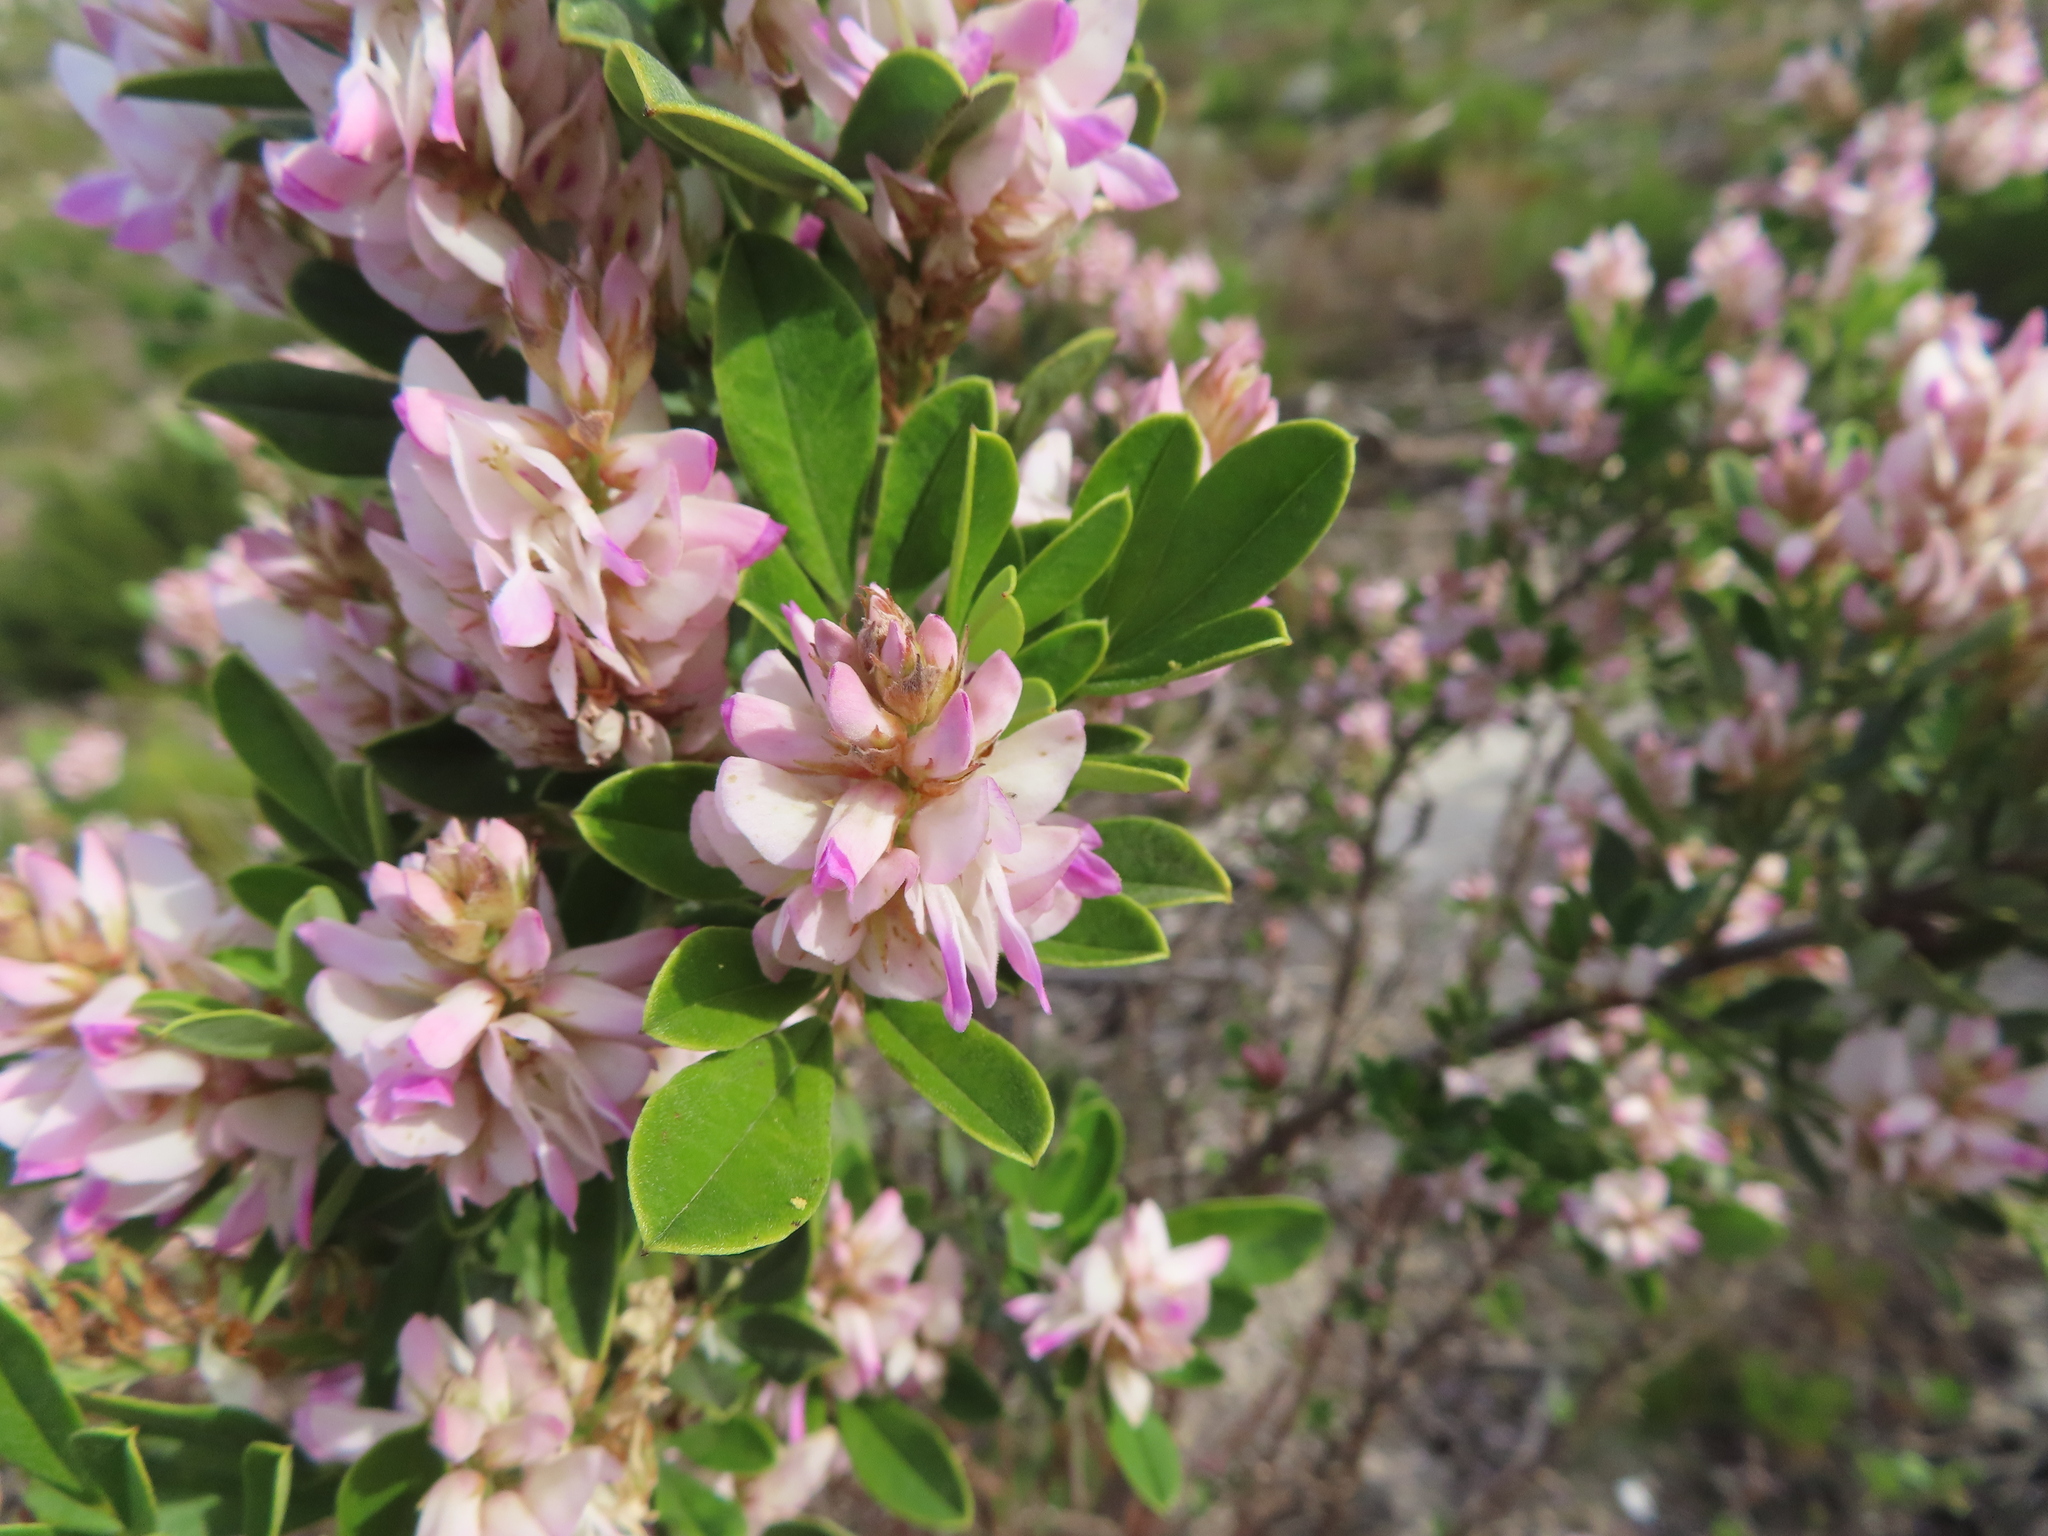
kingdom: Plantae
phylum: Tracheophyta
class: Magnoliopsida
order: Fabales
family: Fabaceae
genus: Indigofera
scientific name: Indigofera cytisoides
